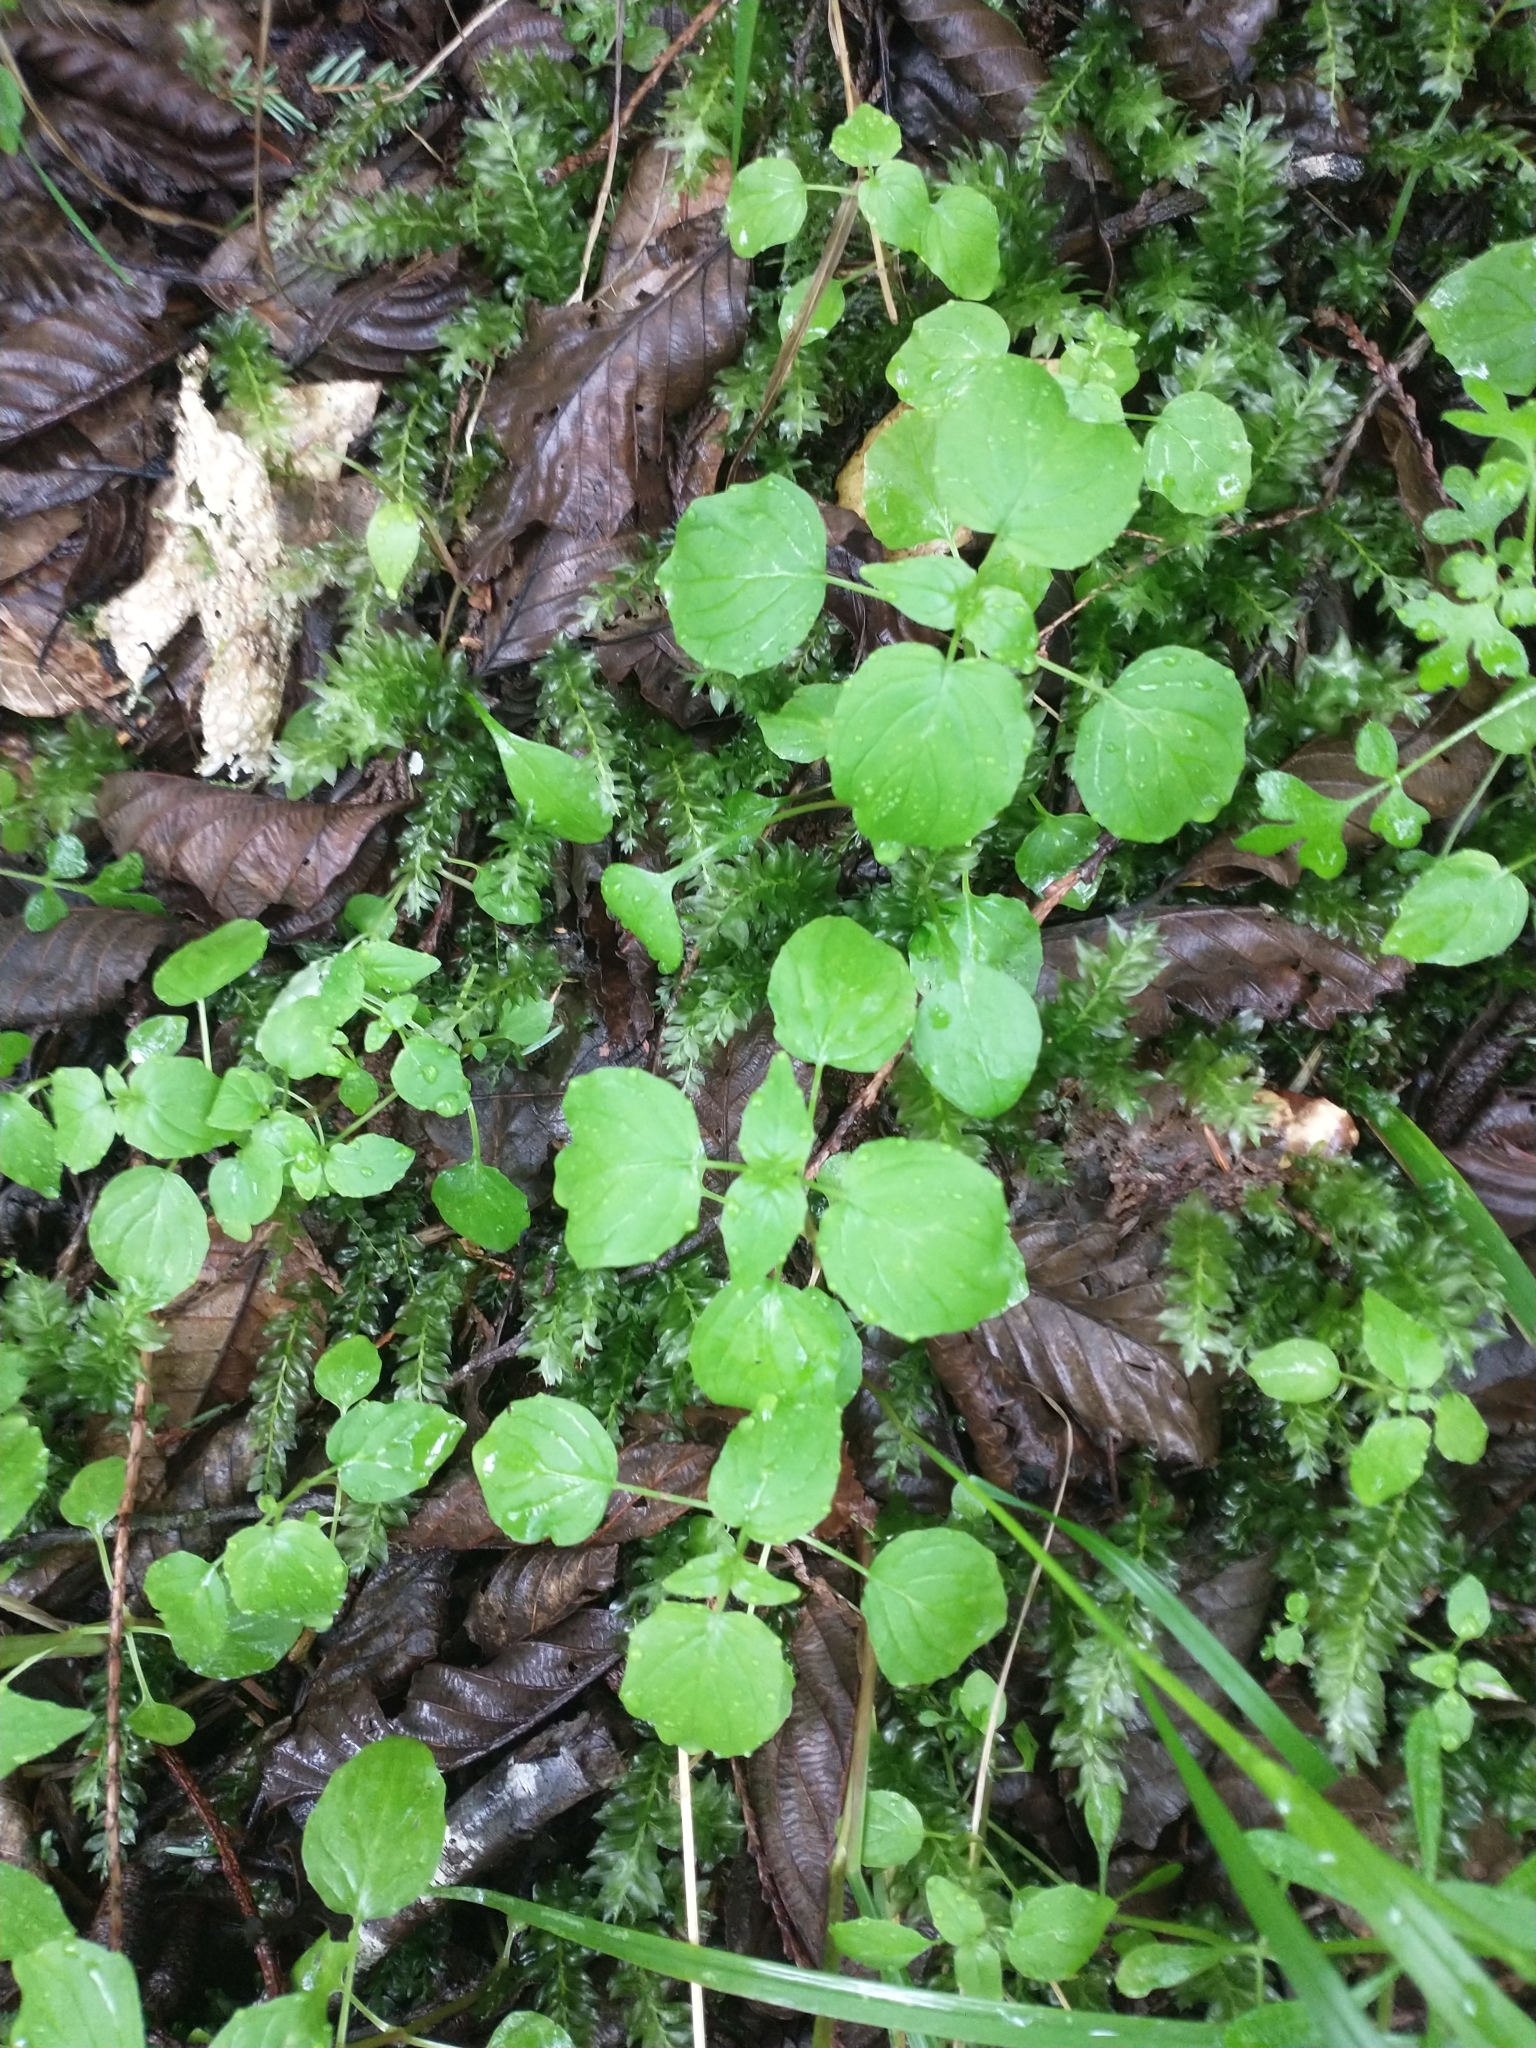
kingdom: Plantae
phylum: Tracheophyta
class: Magnoliopsida
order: Myrtales
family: Onagraceae
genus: Circaea
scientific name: Circaea alpina
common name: Alpine enchanter's-nightshade
